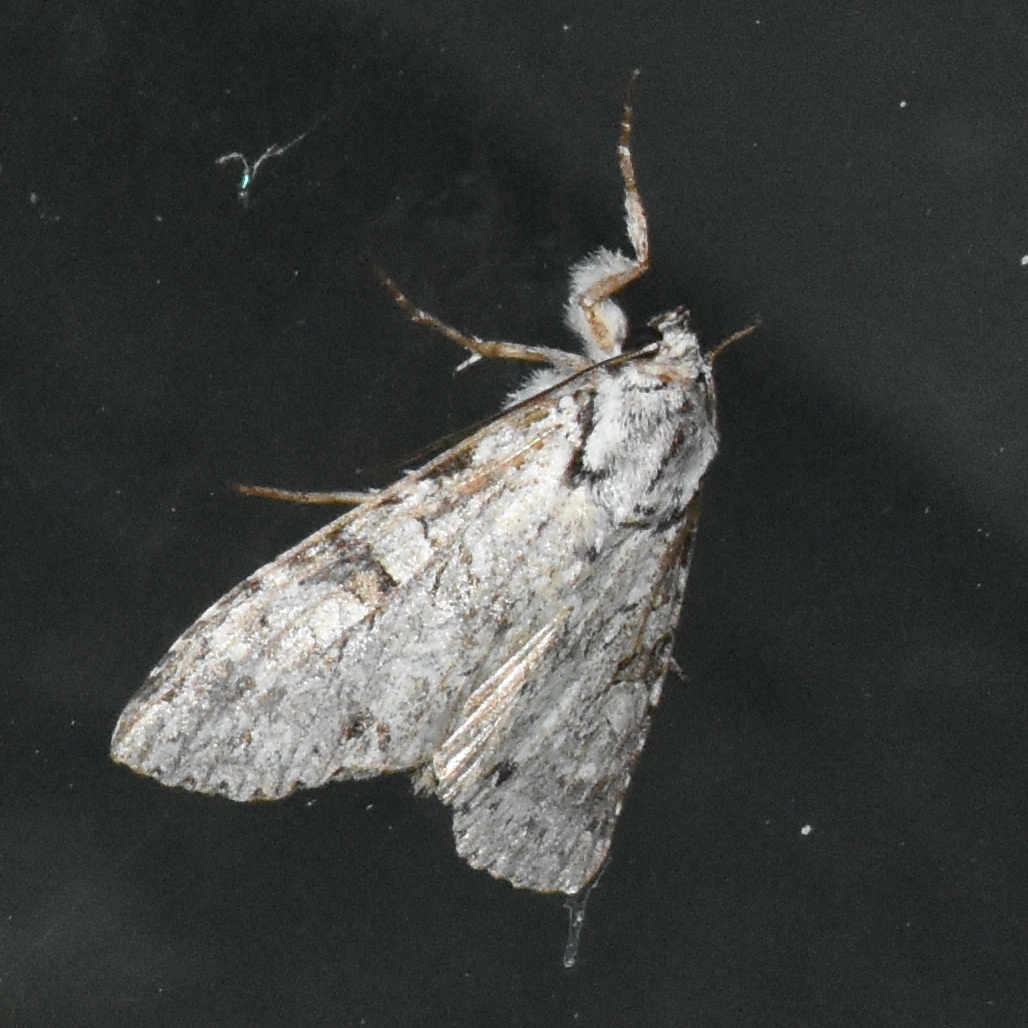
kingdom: Animalia
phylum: Arthropoda
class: Insecta
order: Lepidoptera
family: Noctuidae
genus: Polia
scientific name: Polia nimbosa
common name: Stormy arches
